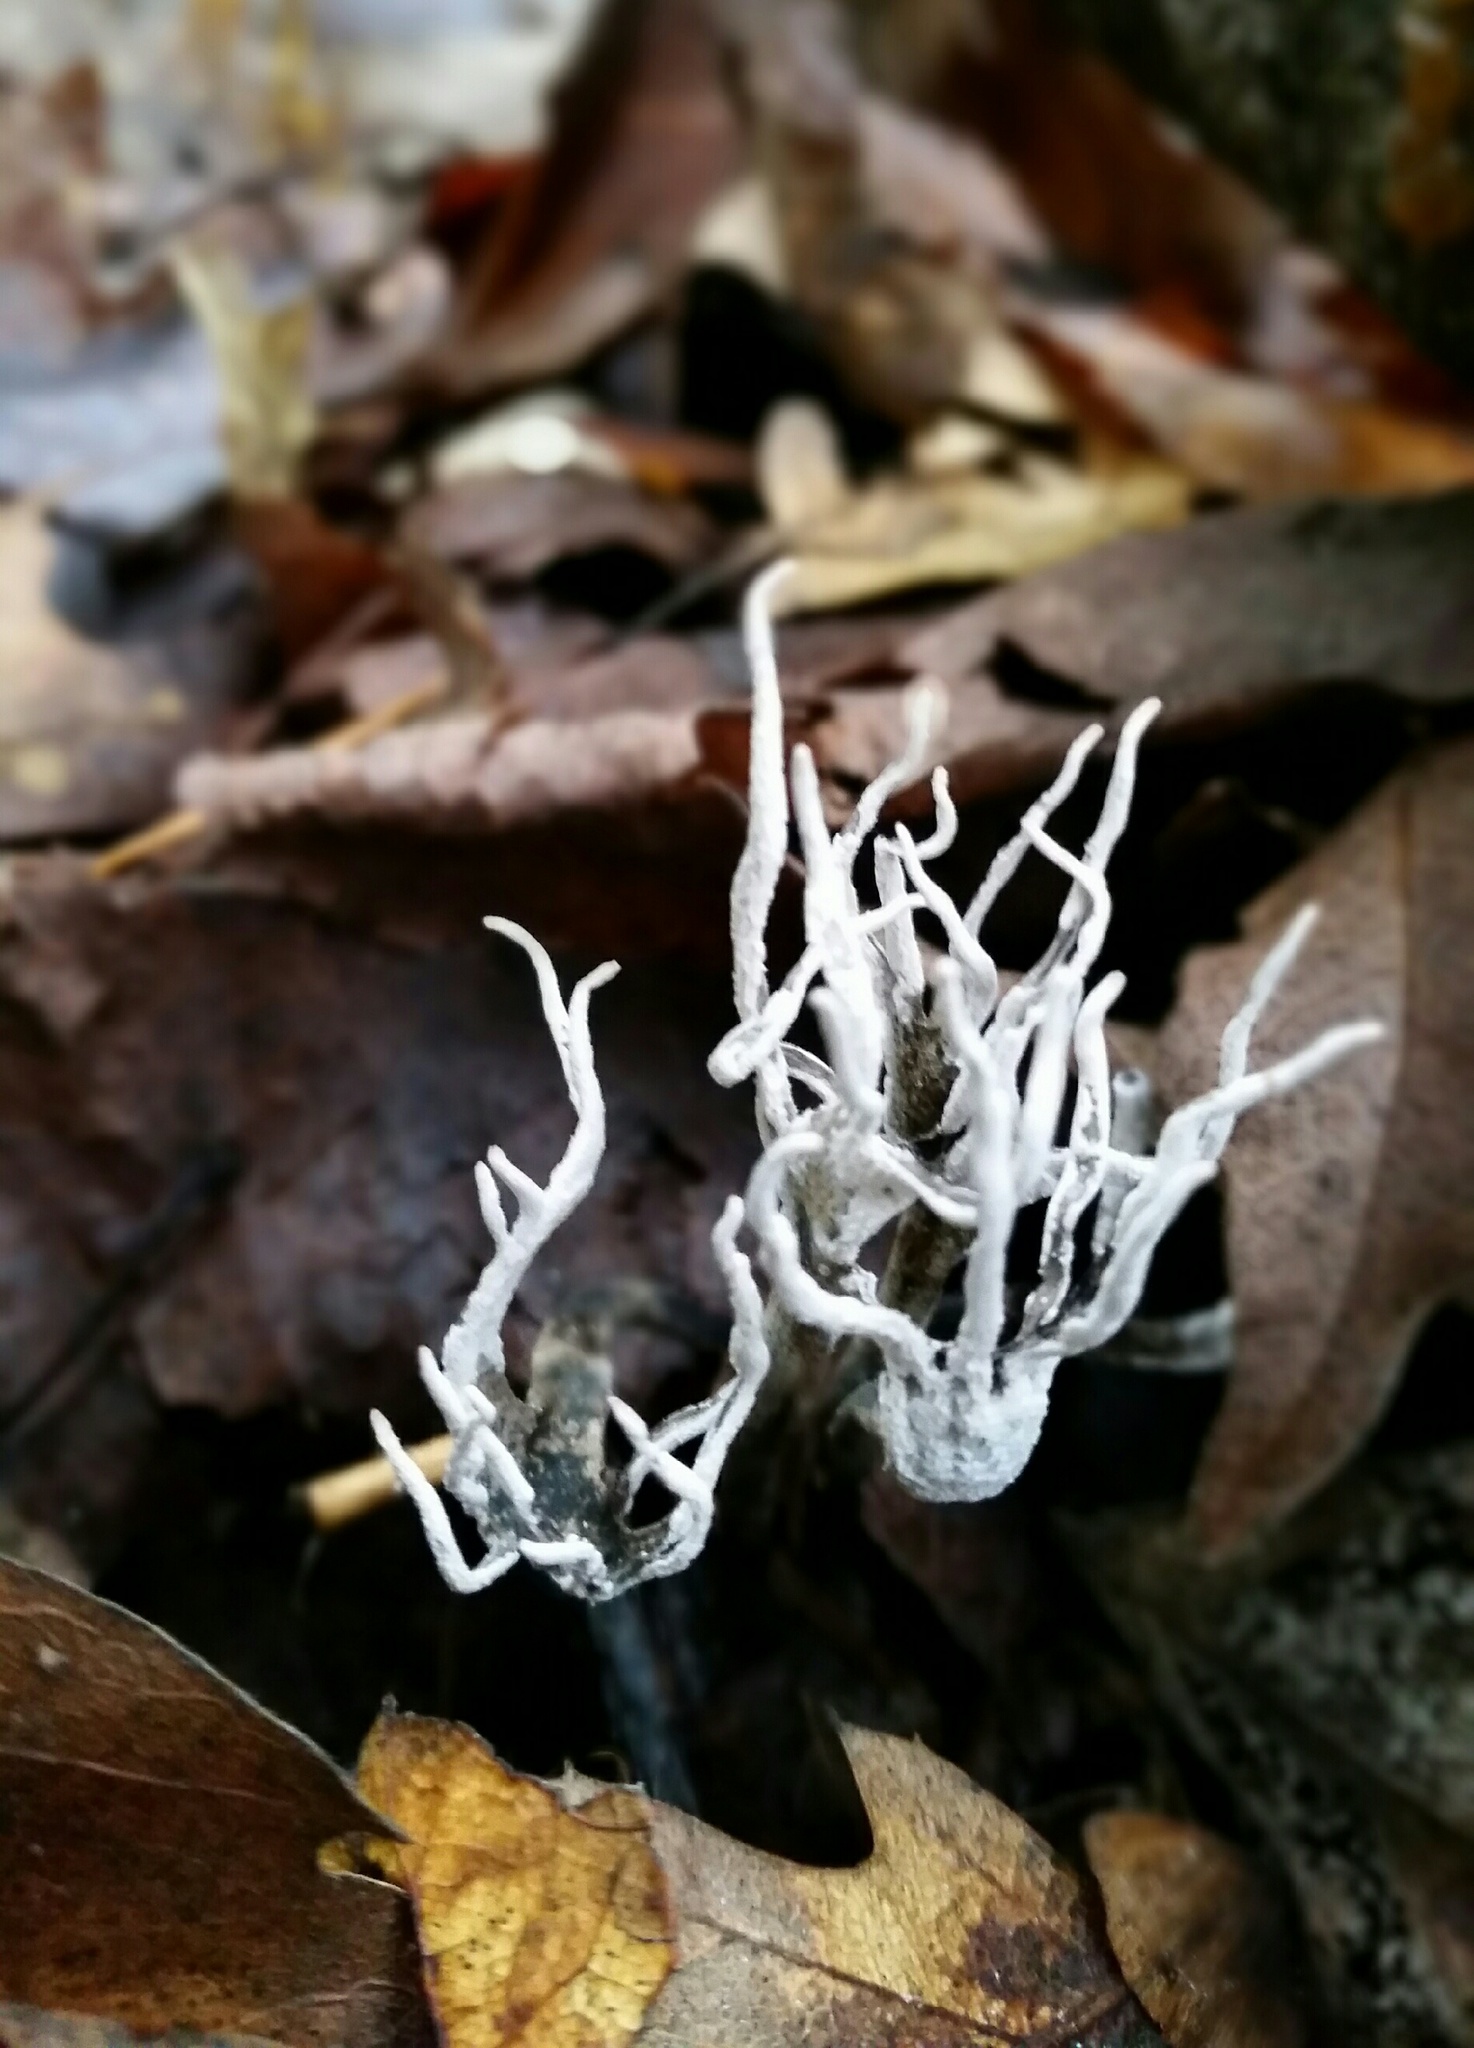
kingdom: Fungi
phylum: Ascomycota
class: Sordariomycetes
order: Xylariales
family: Xylariaceae
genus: Xylaria
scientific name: Xylaria hypoxylon
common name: Candle-snuff fungus
